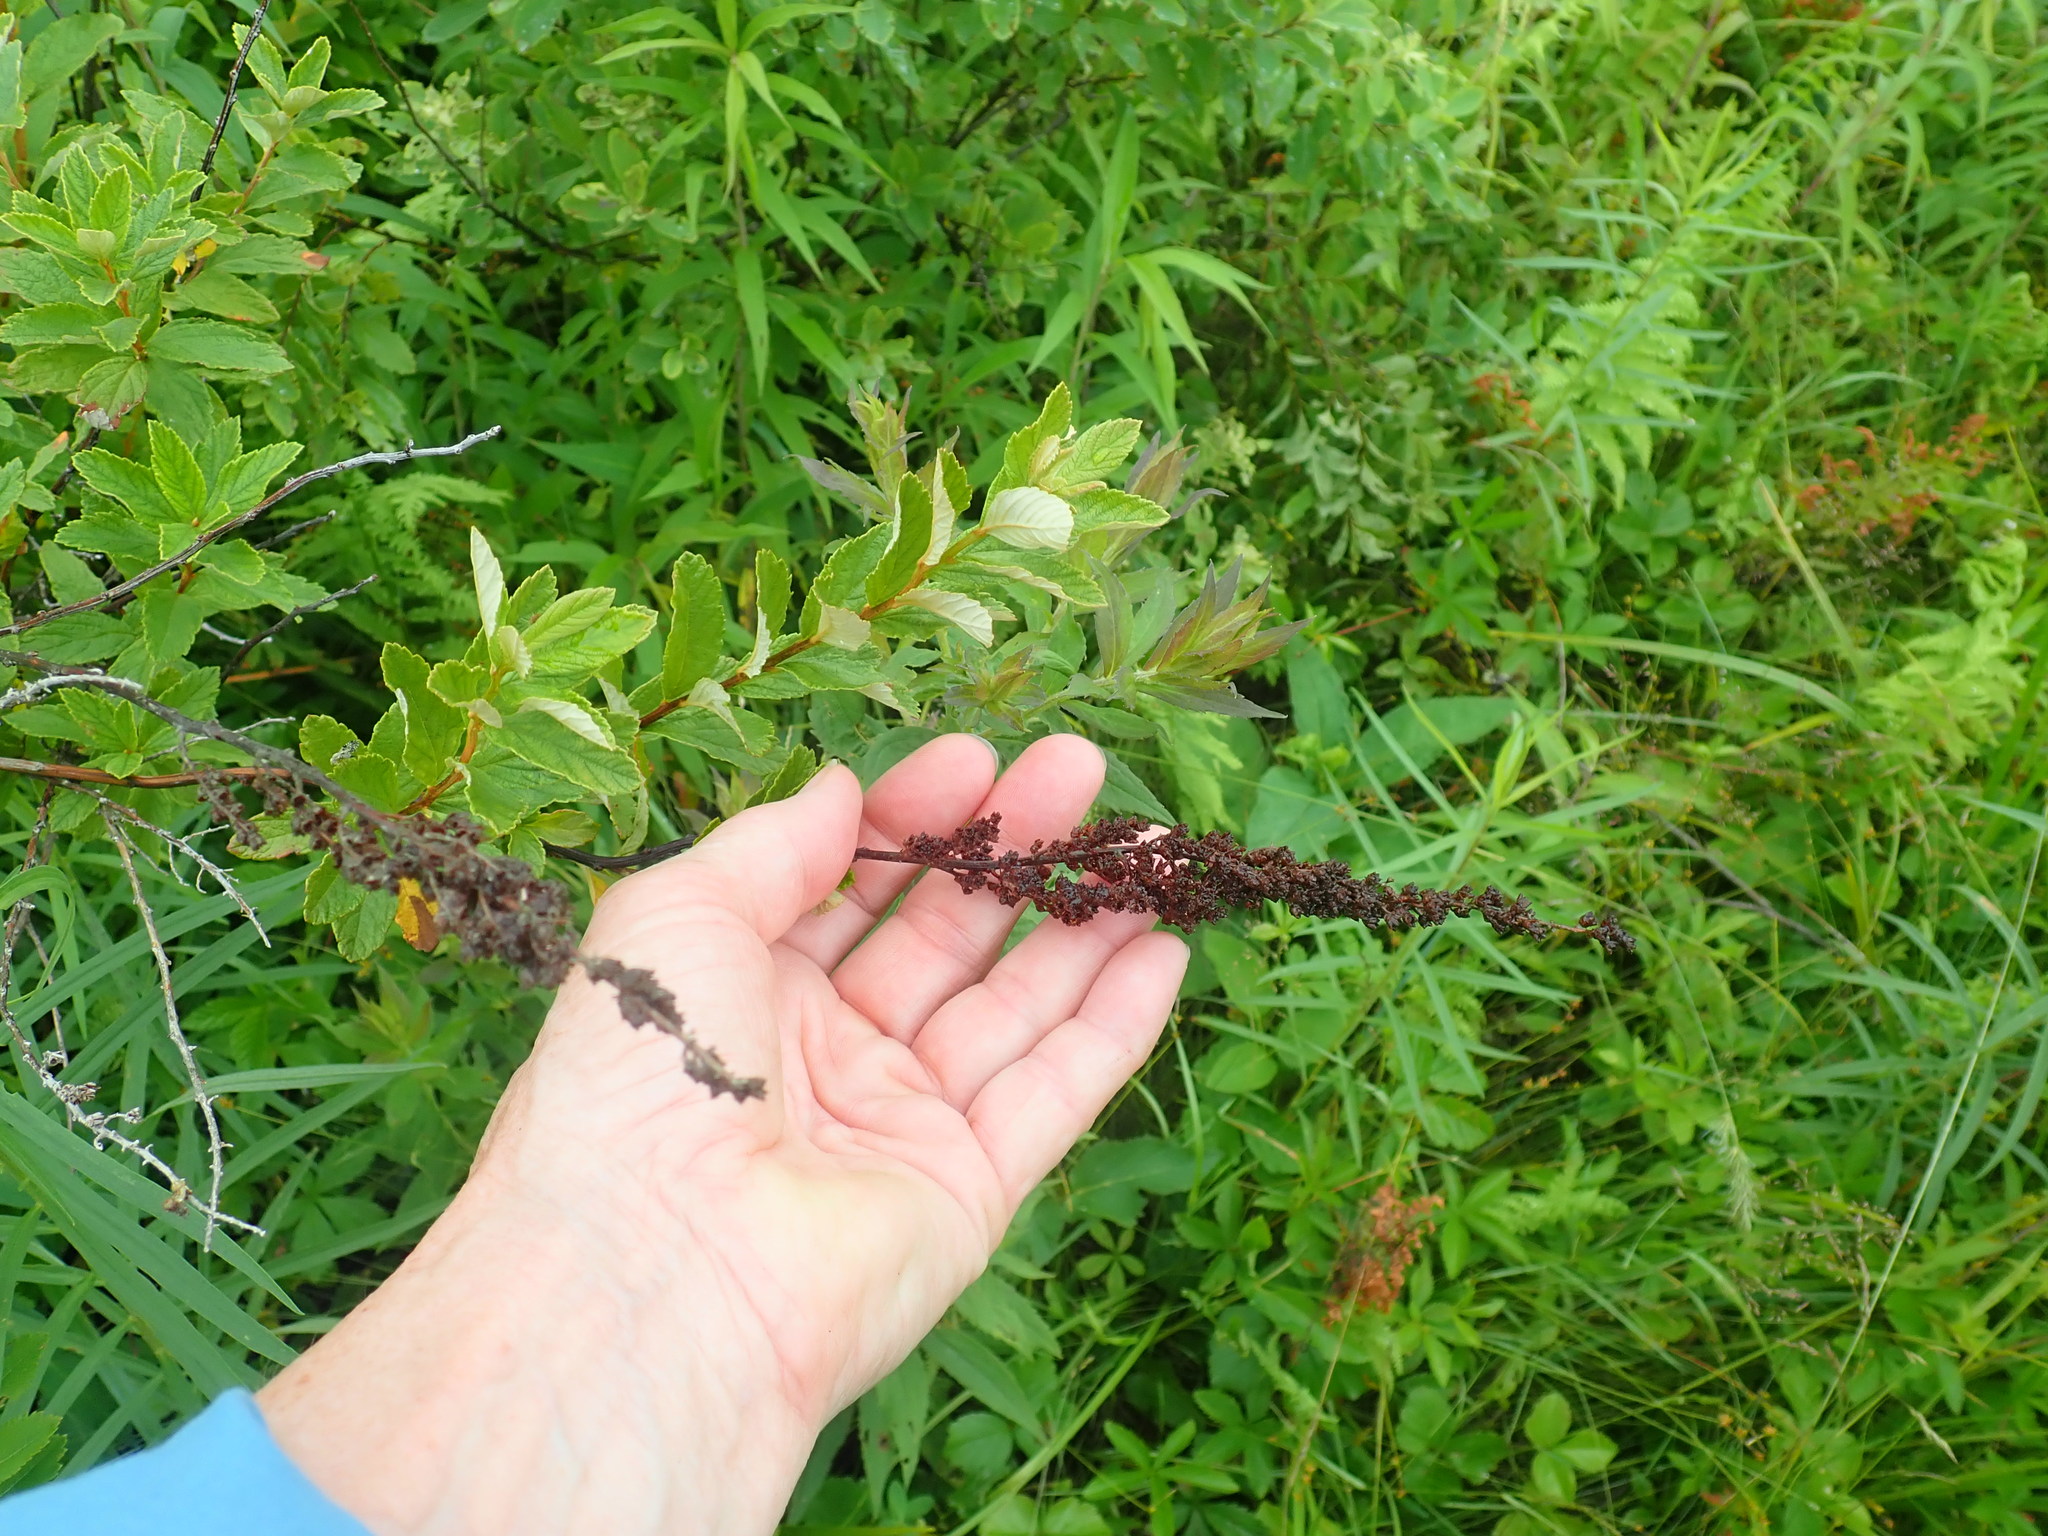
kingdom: Plantae
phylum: Tracheophyta
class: Magnoliopsida
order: Rosales
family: Rosaceae
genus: Spiraea
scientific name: Spiraea tomentosa
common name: Hardhack
